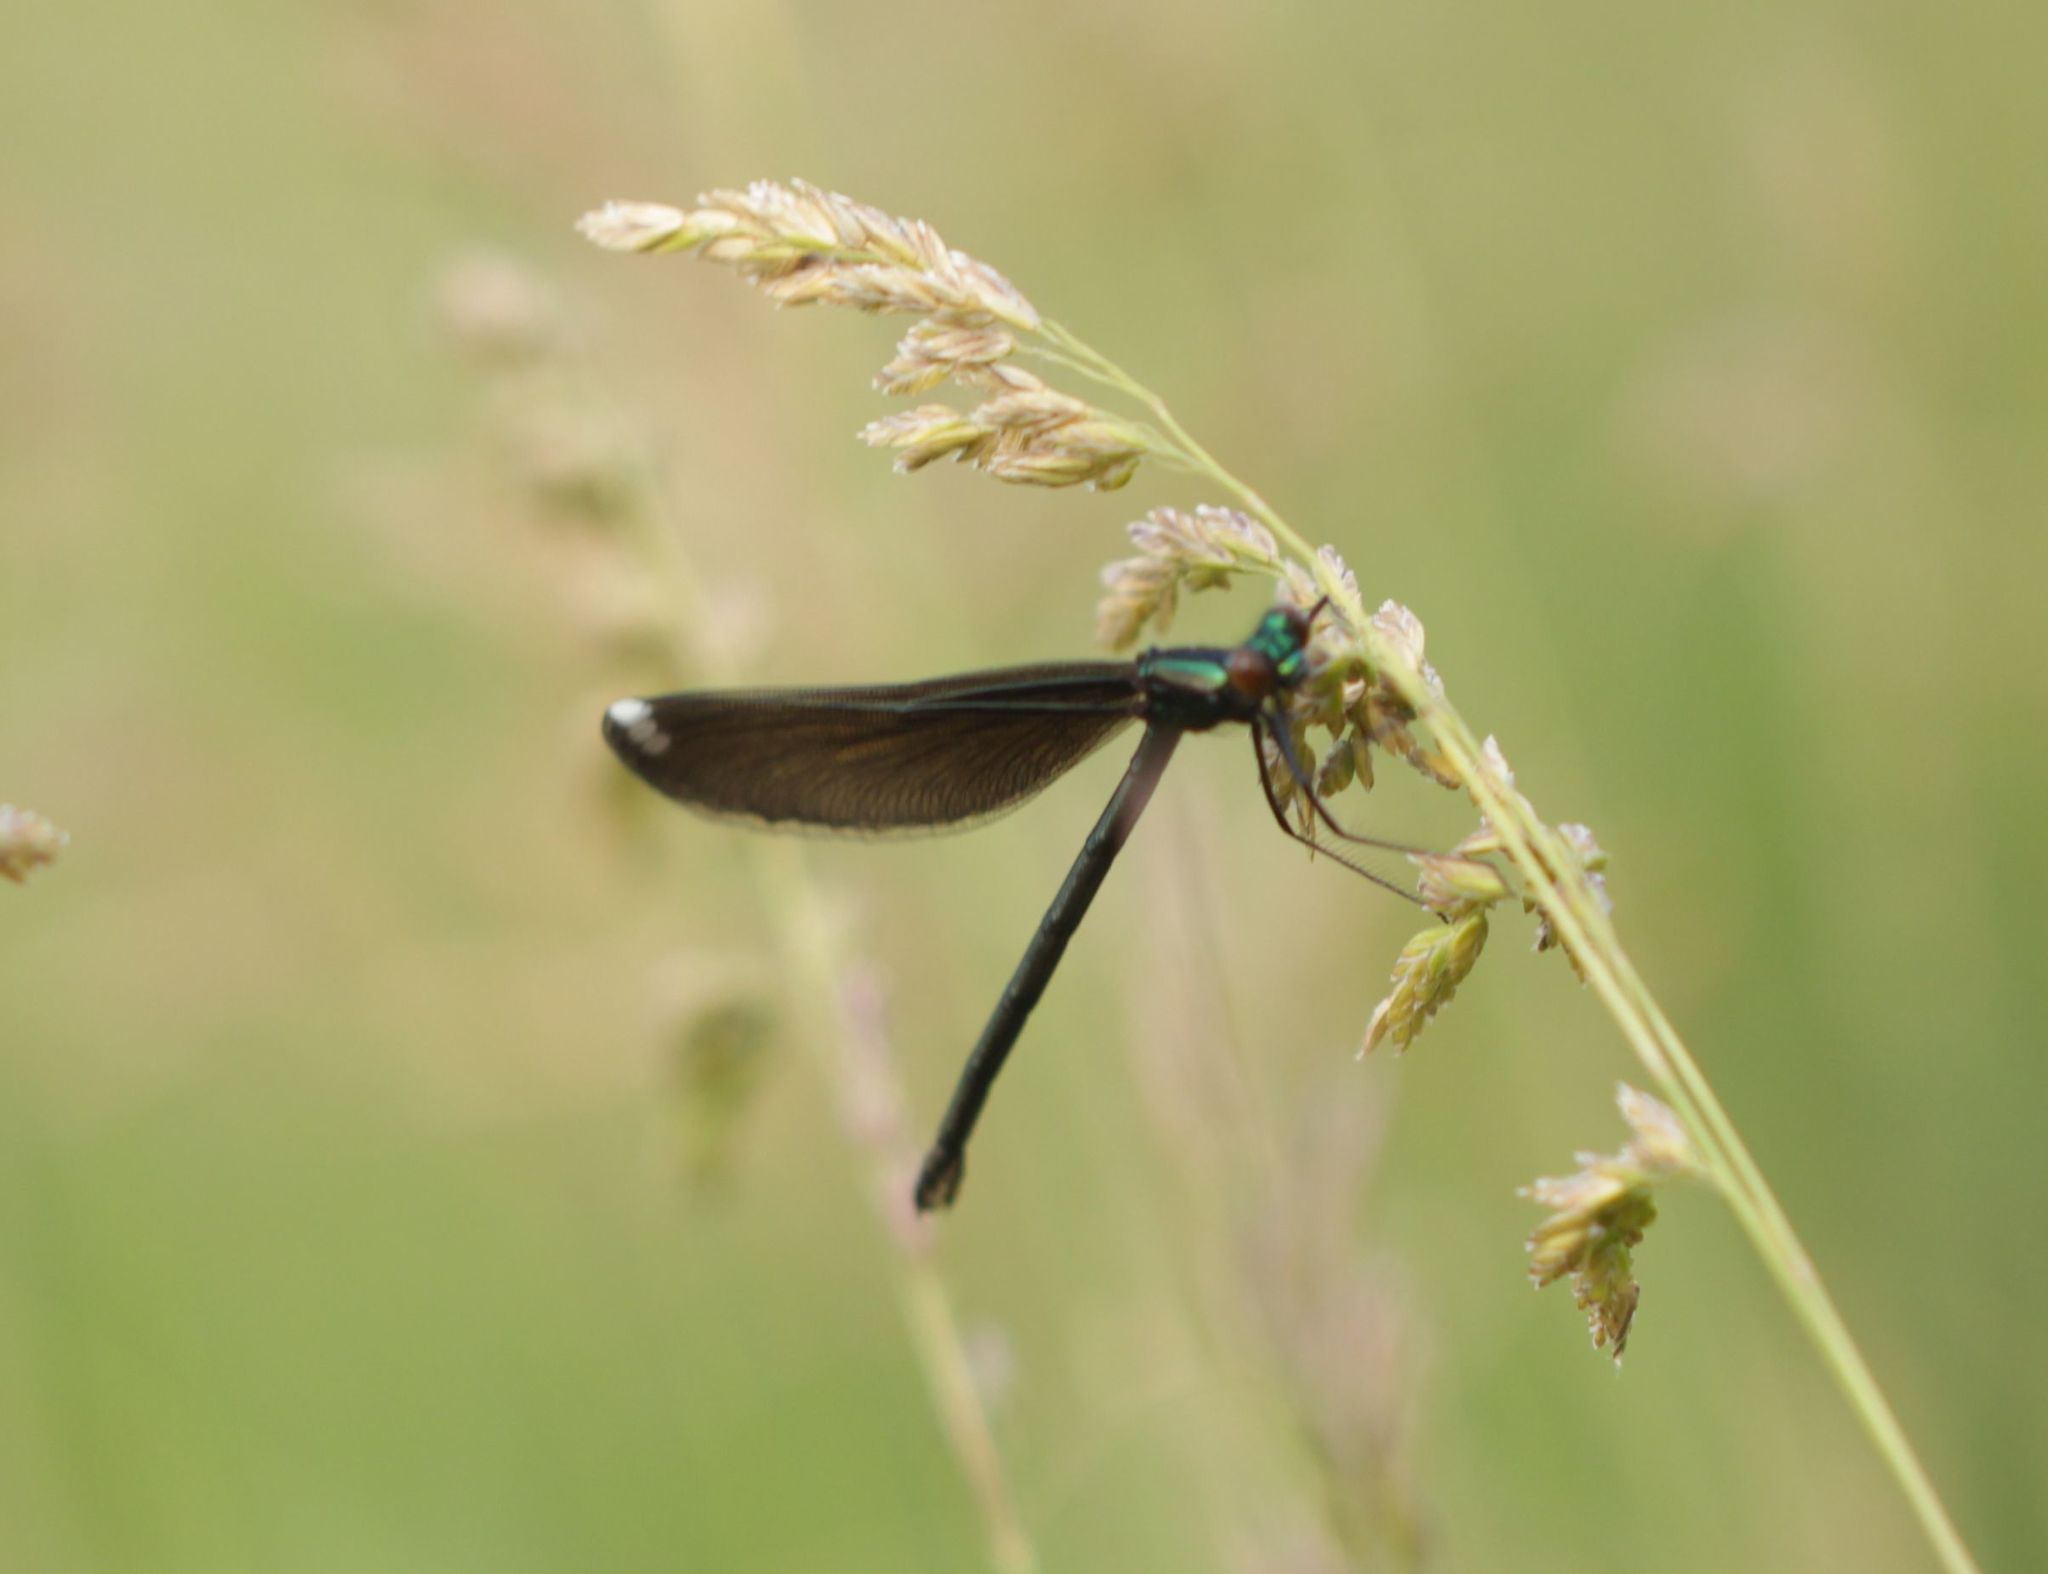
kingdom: Animalia
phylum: Arthropoda
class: Insecta
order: Odonata
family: Calopterygidae
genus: Calopteryx
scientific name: Calopteryx maculata
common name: Ebony jewelwing
